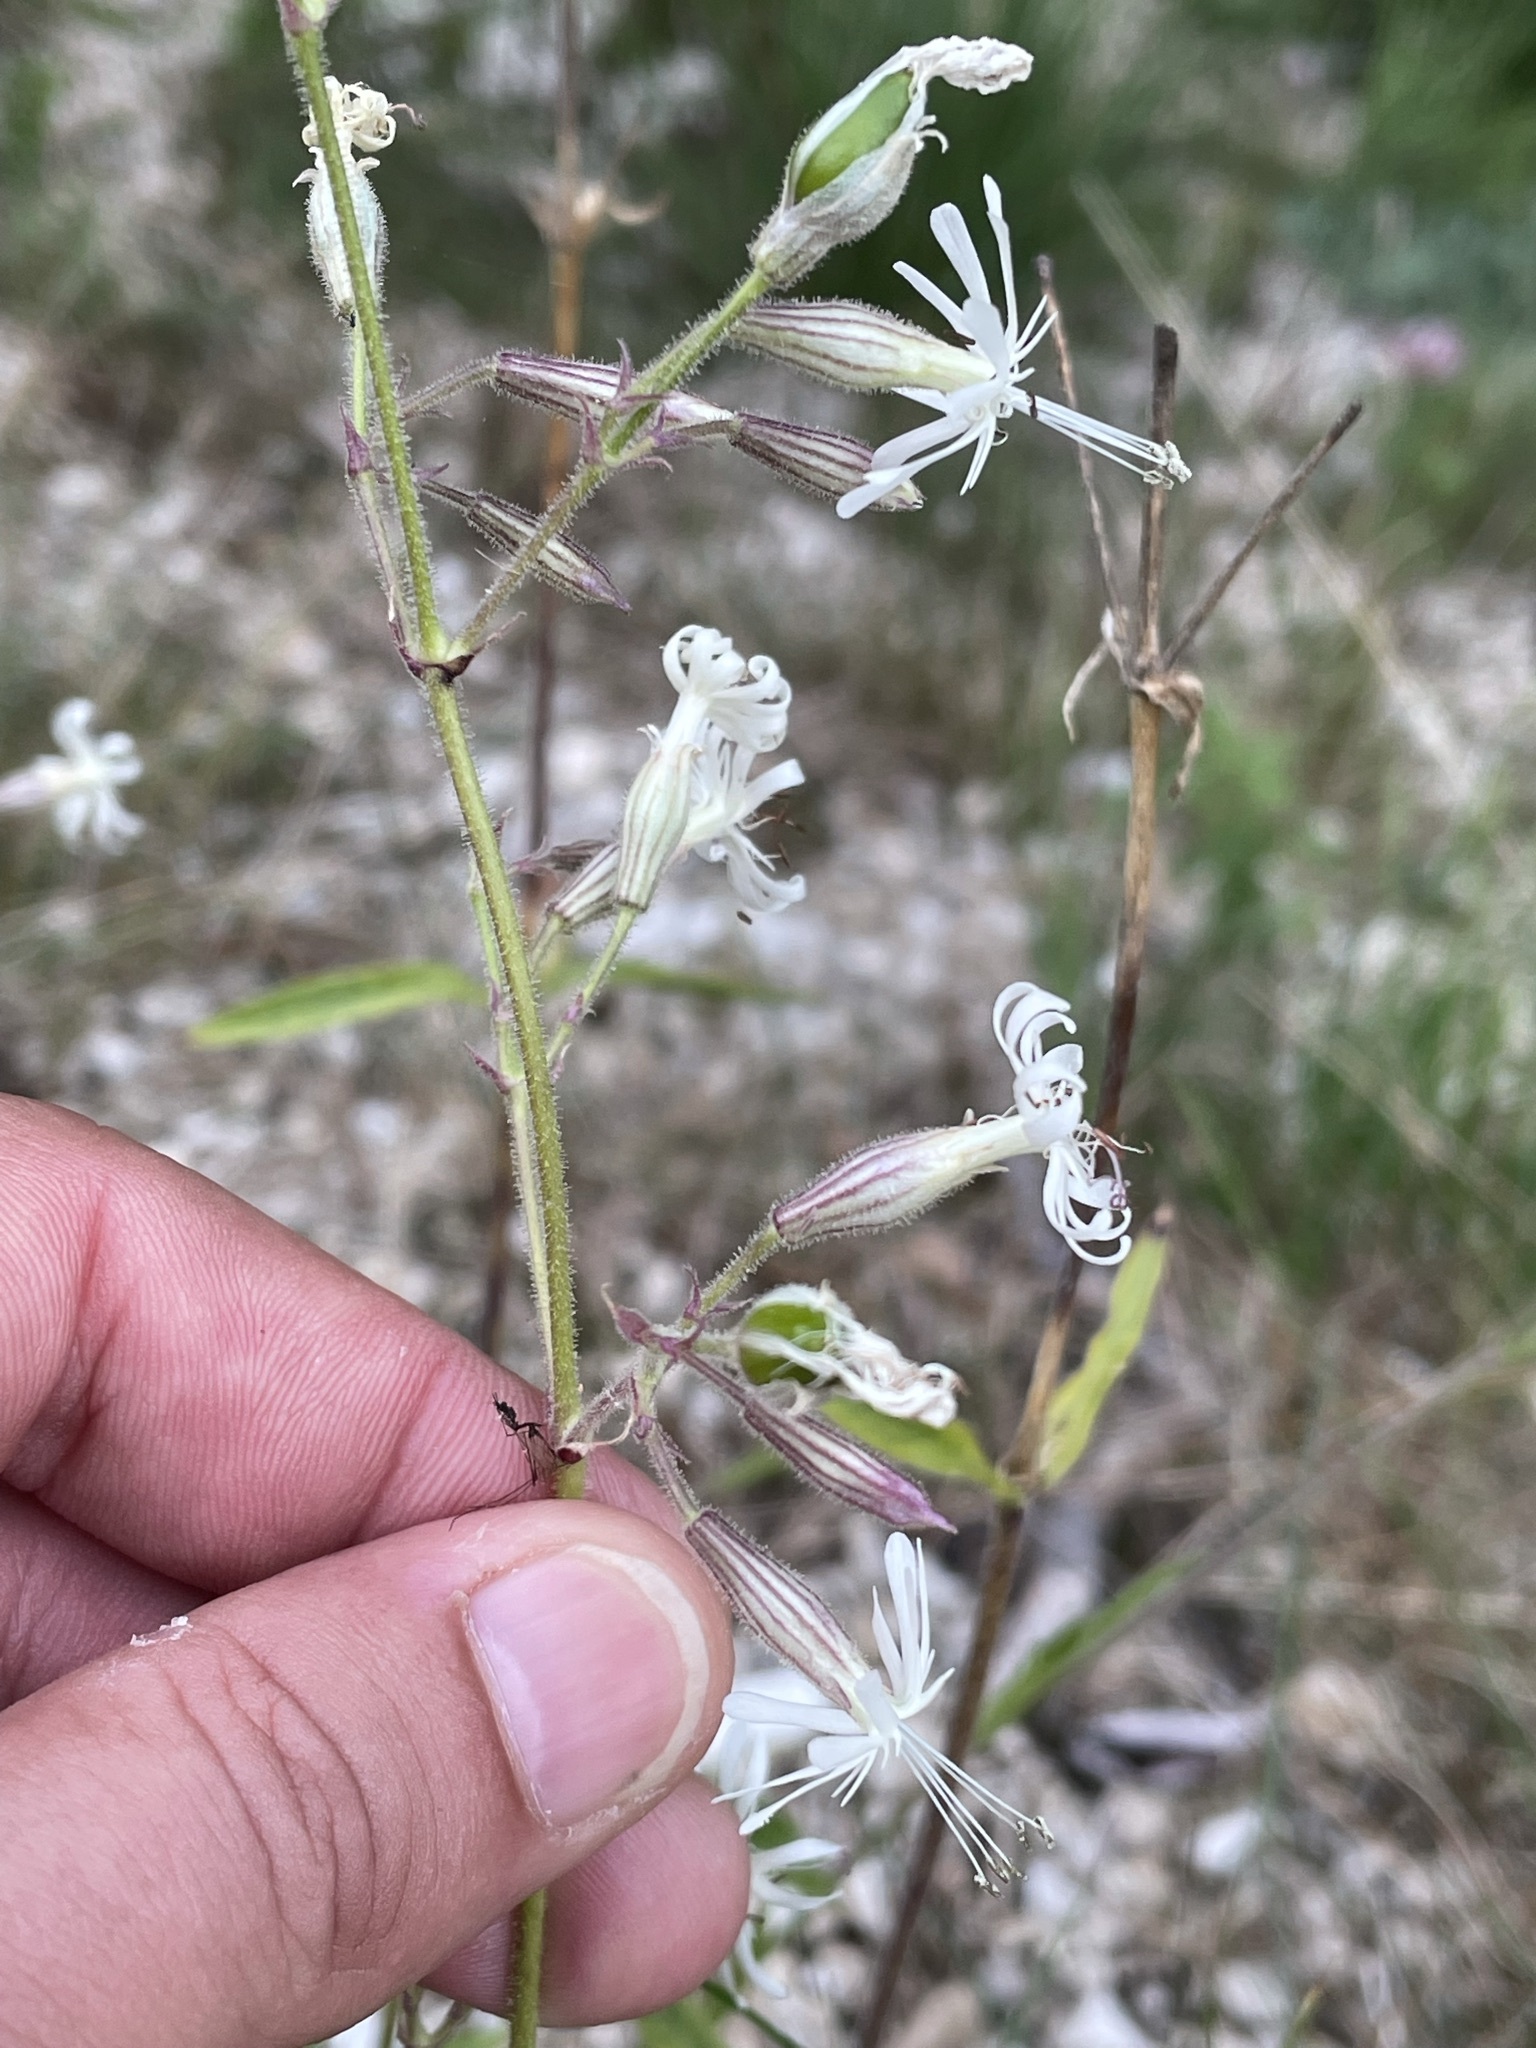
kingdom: Plantae
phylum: Tracheophyta
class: Magnoliopsida
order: Caryophyllales
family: Caryophyllaceae
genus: Silene
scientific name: Silene nutans
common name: Nottingham catchfly
